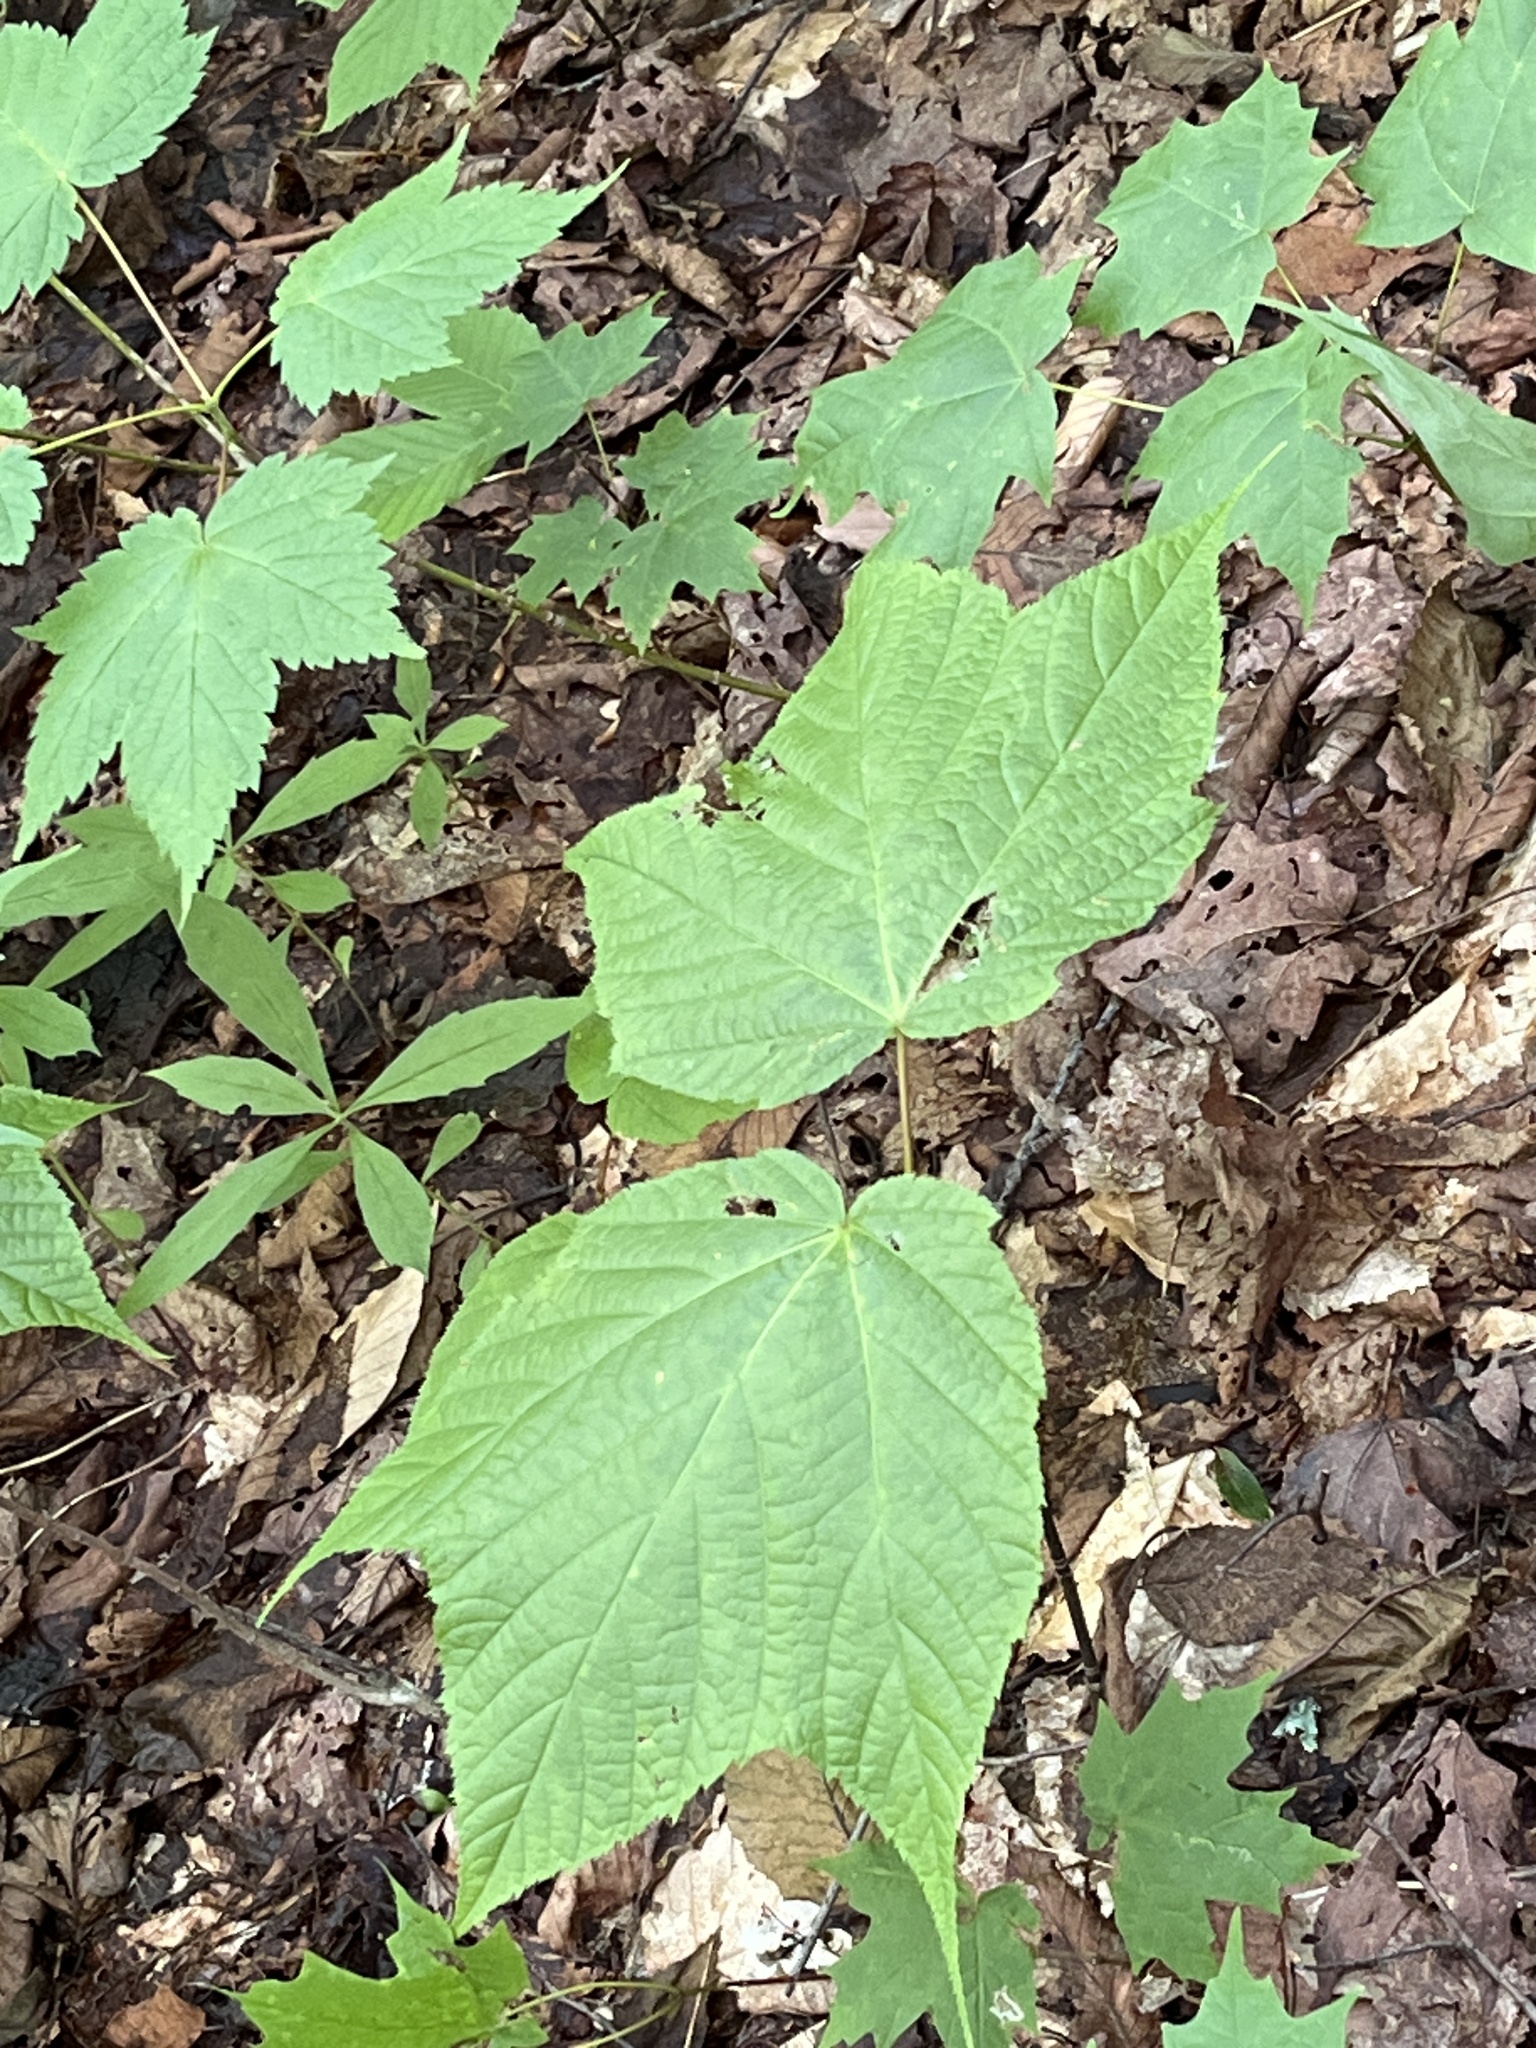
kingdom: Plantae
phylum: Tracheophyta
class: Magnoliopsida
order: Sapindales
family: Sapindaceae
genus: Acer
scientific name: Acer pensylvanicum
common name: Moosewood
